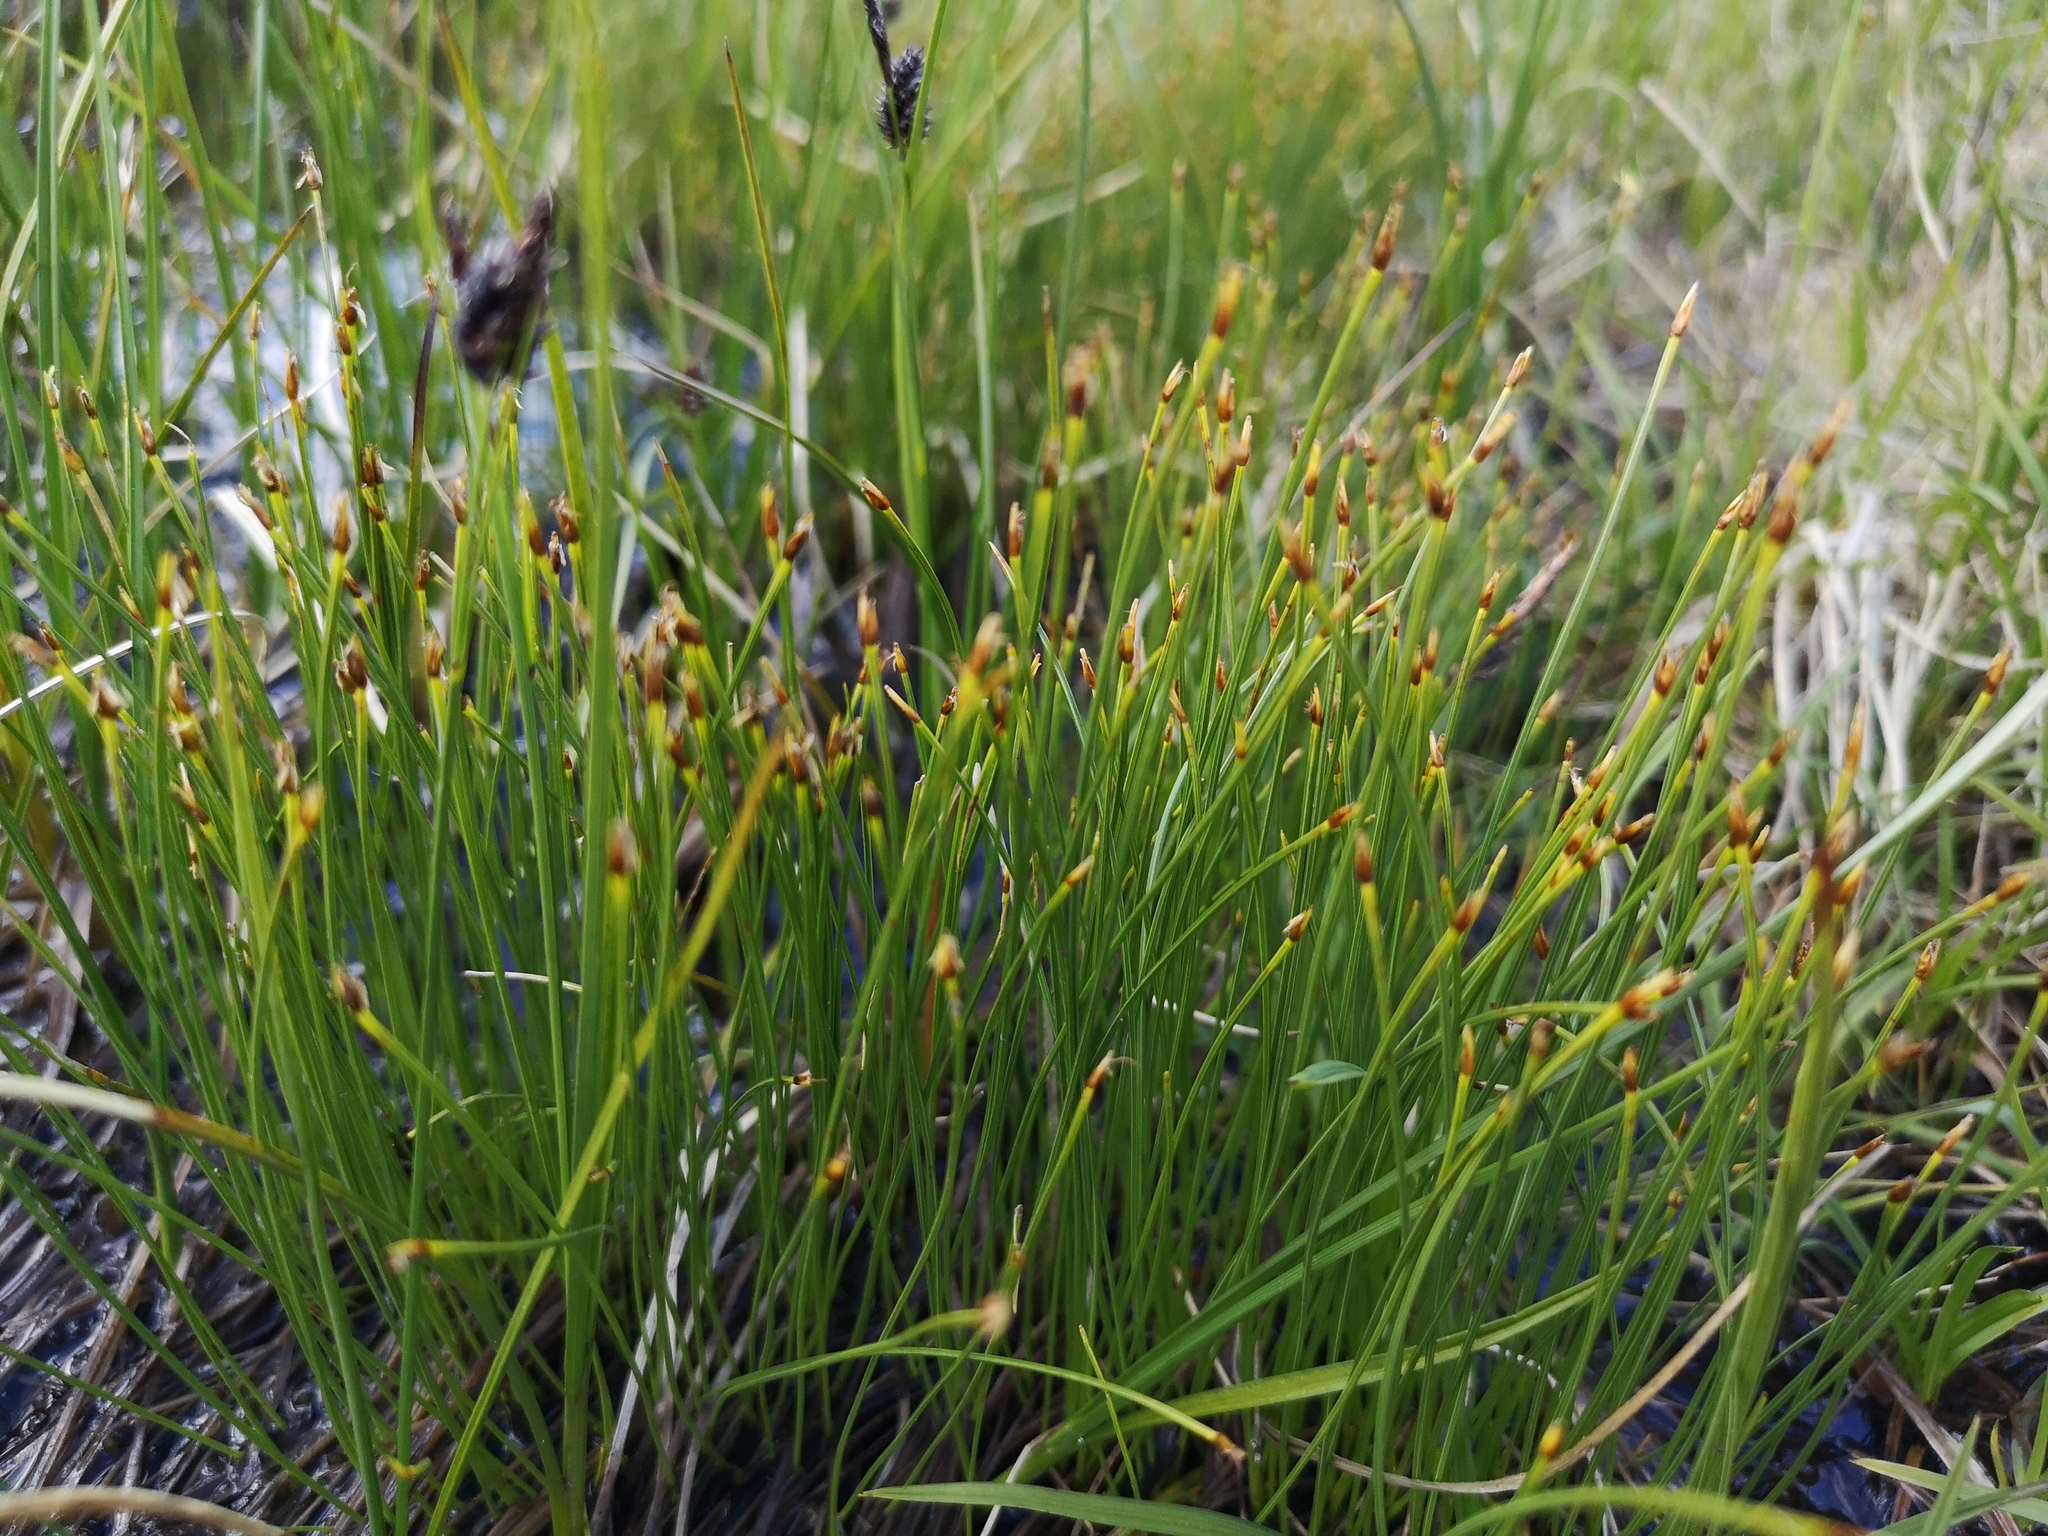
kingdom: Plantae
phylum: Tracheophyta
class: Liliopsida
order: Poales
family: Cyperaceae
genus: Trichophorum
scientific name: Trichophorum cespitosum
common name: Cespitose bulrush
